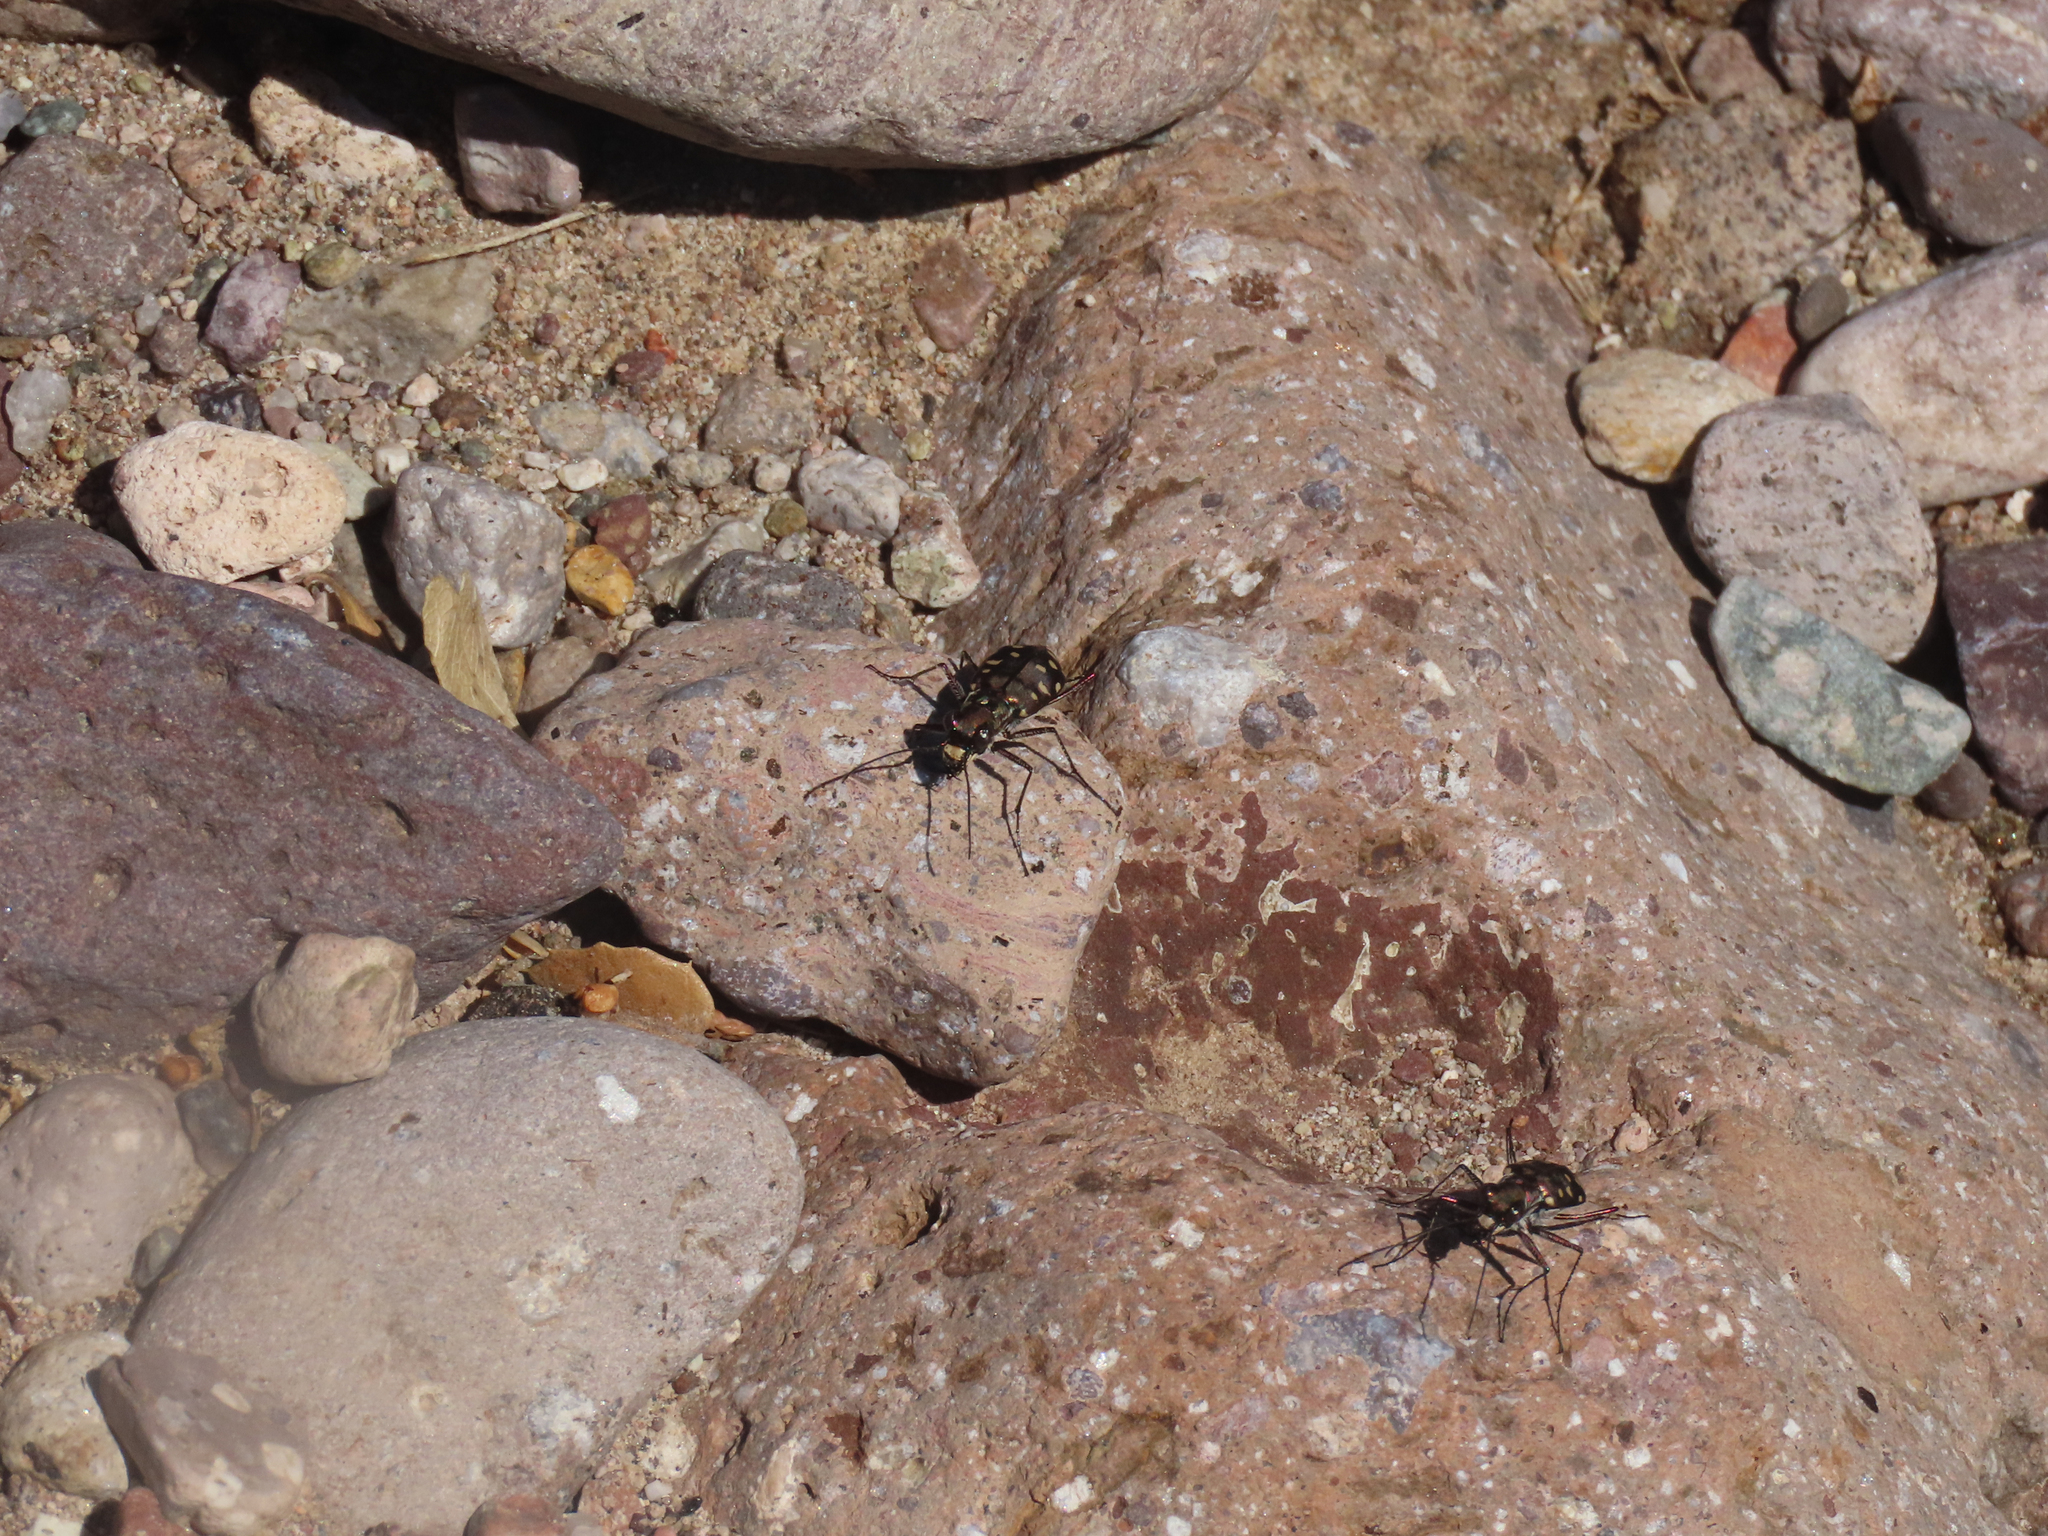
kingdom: Animalia
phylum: Arthropoda
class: Insecta
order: Coleoptera
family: Carabidae
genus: Cicindela
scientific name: Cicindela sedecimpunctata
